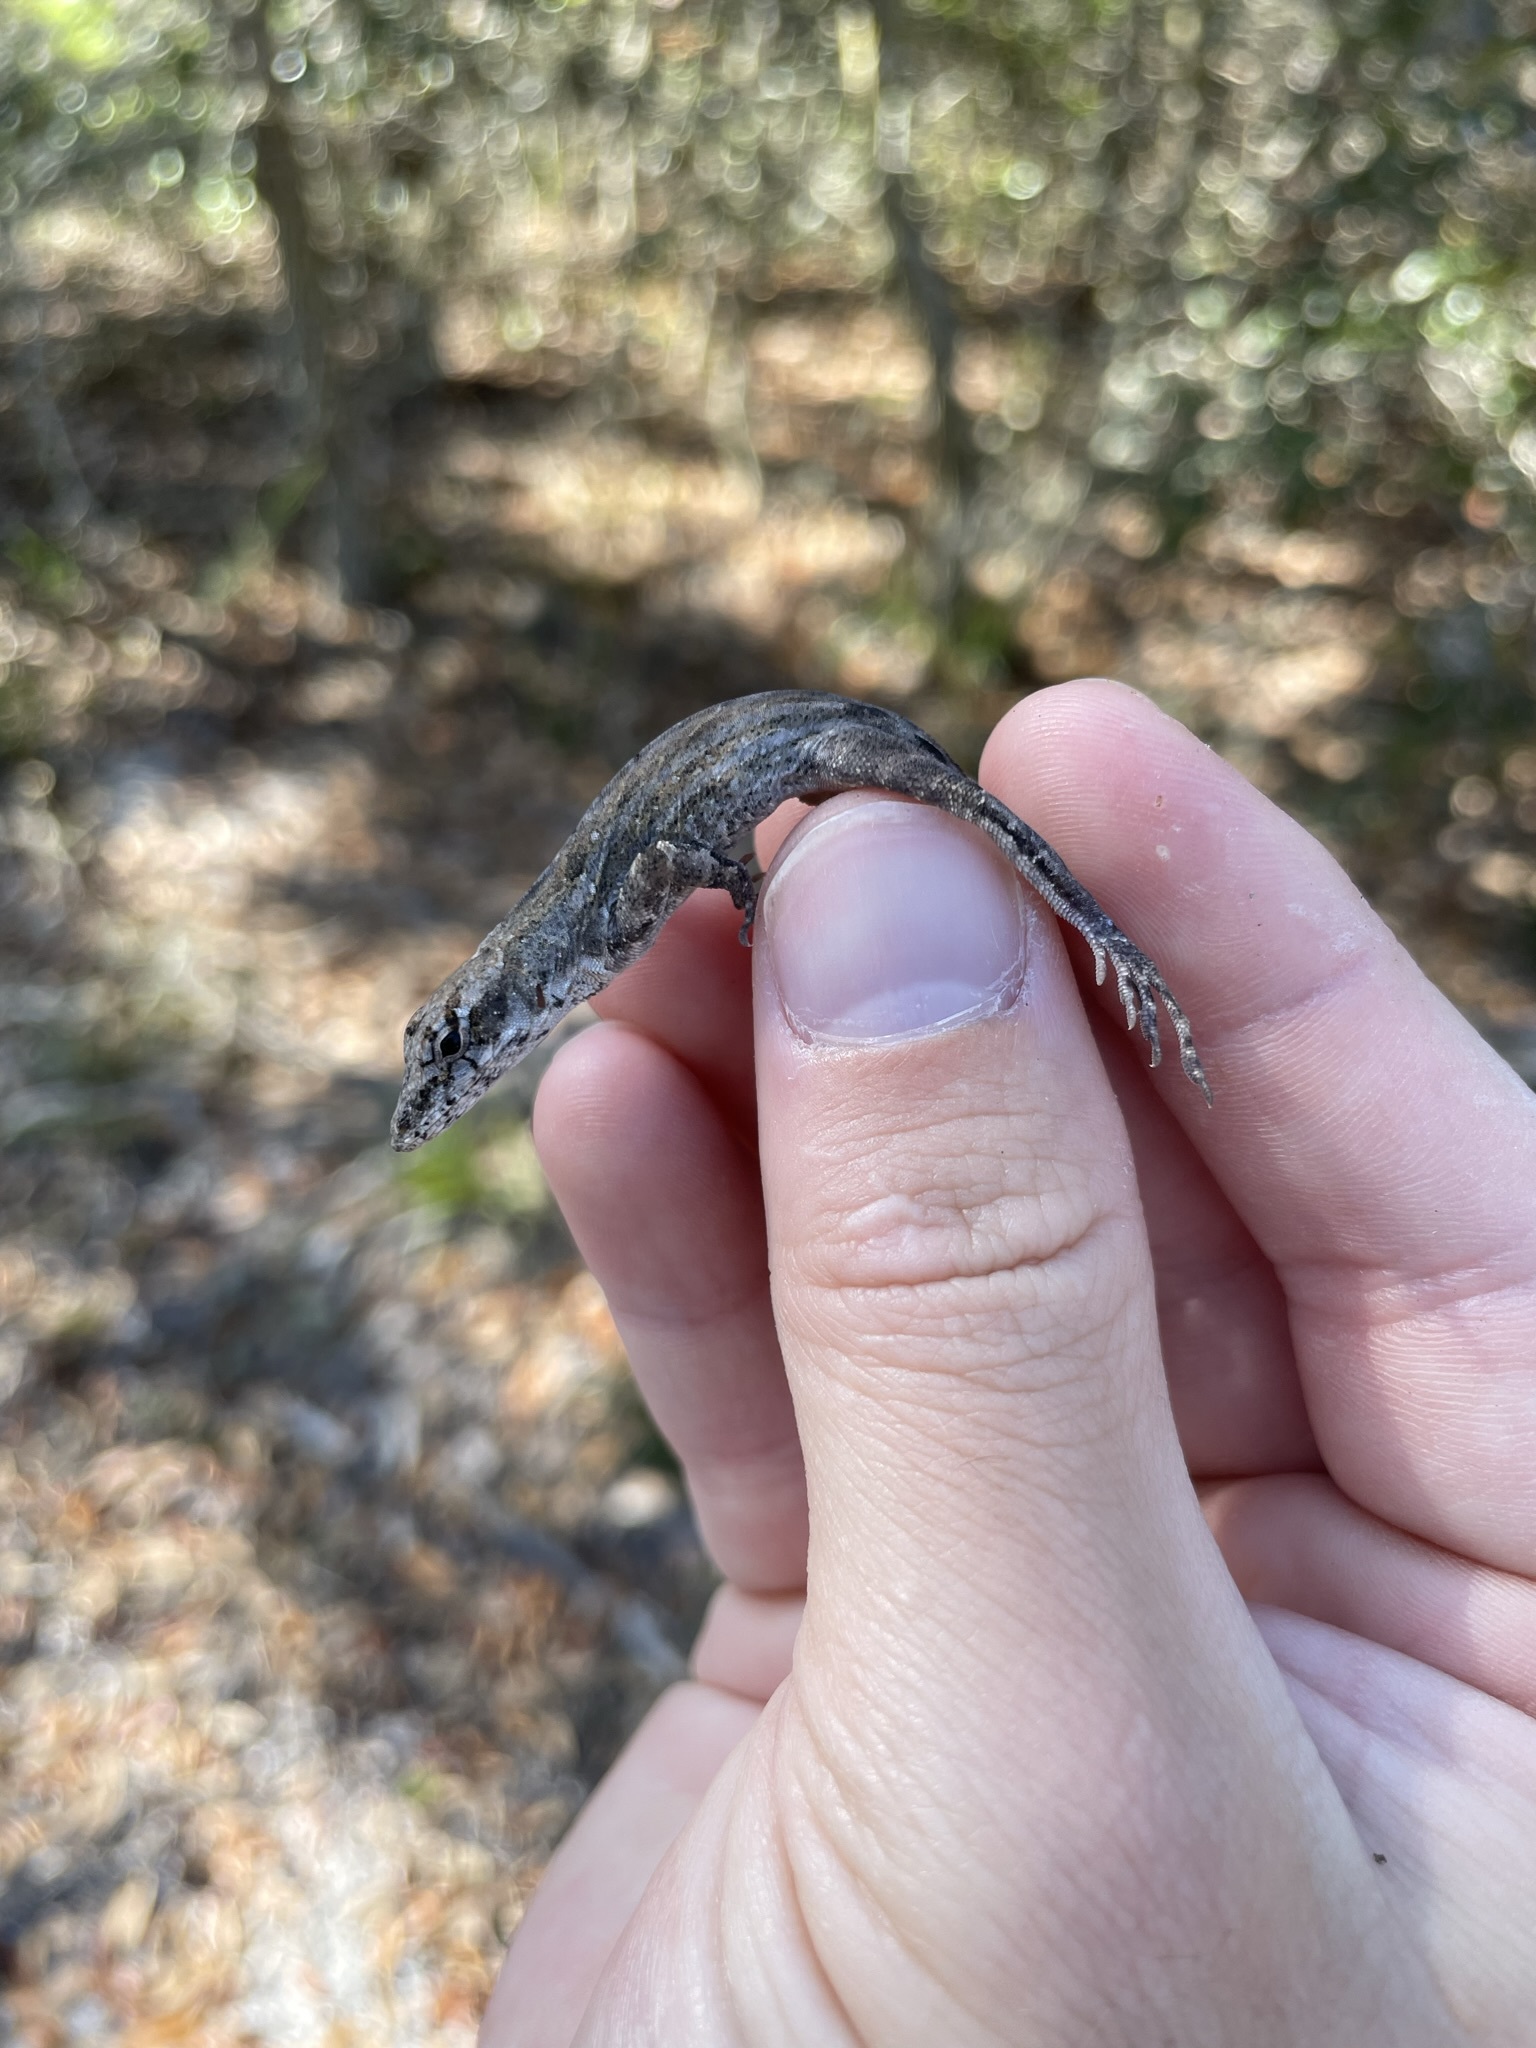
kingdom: Animalia
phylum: Chordata
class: Squamata
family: Dactyloidae
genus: Anolis
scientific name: Anolis sagrei
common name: Brown anole
